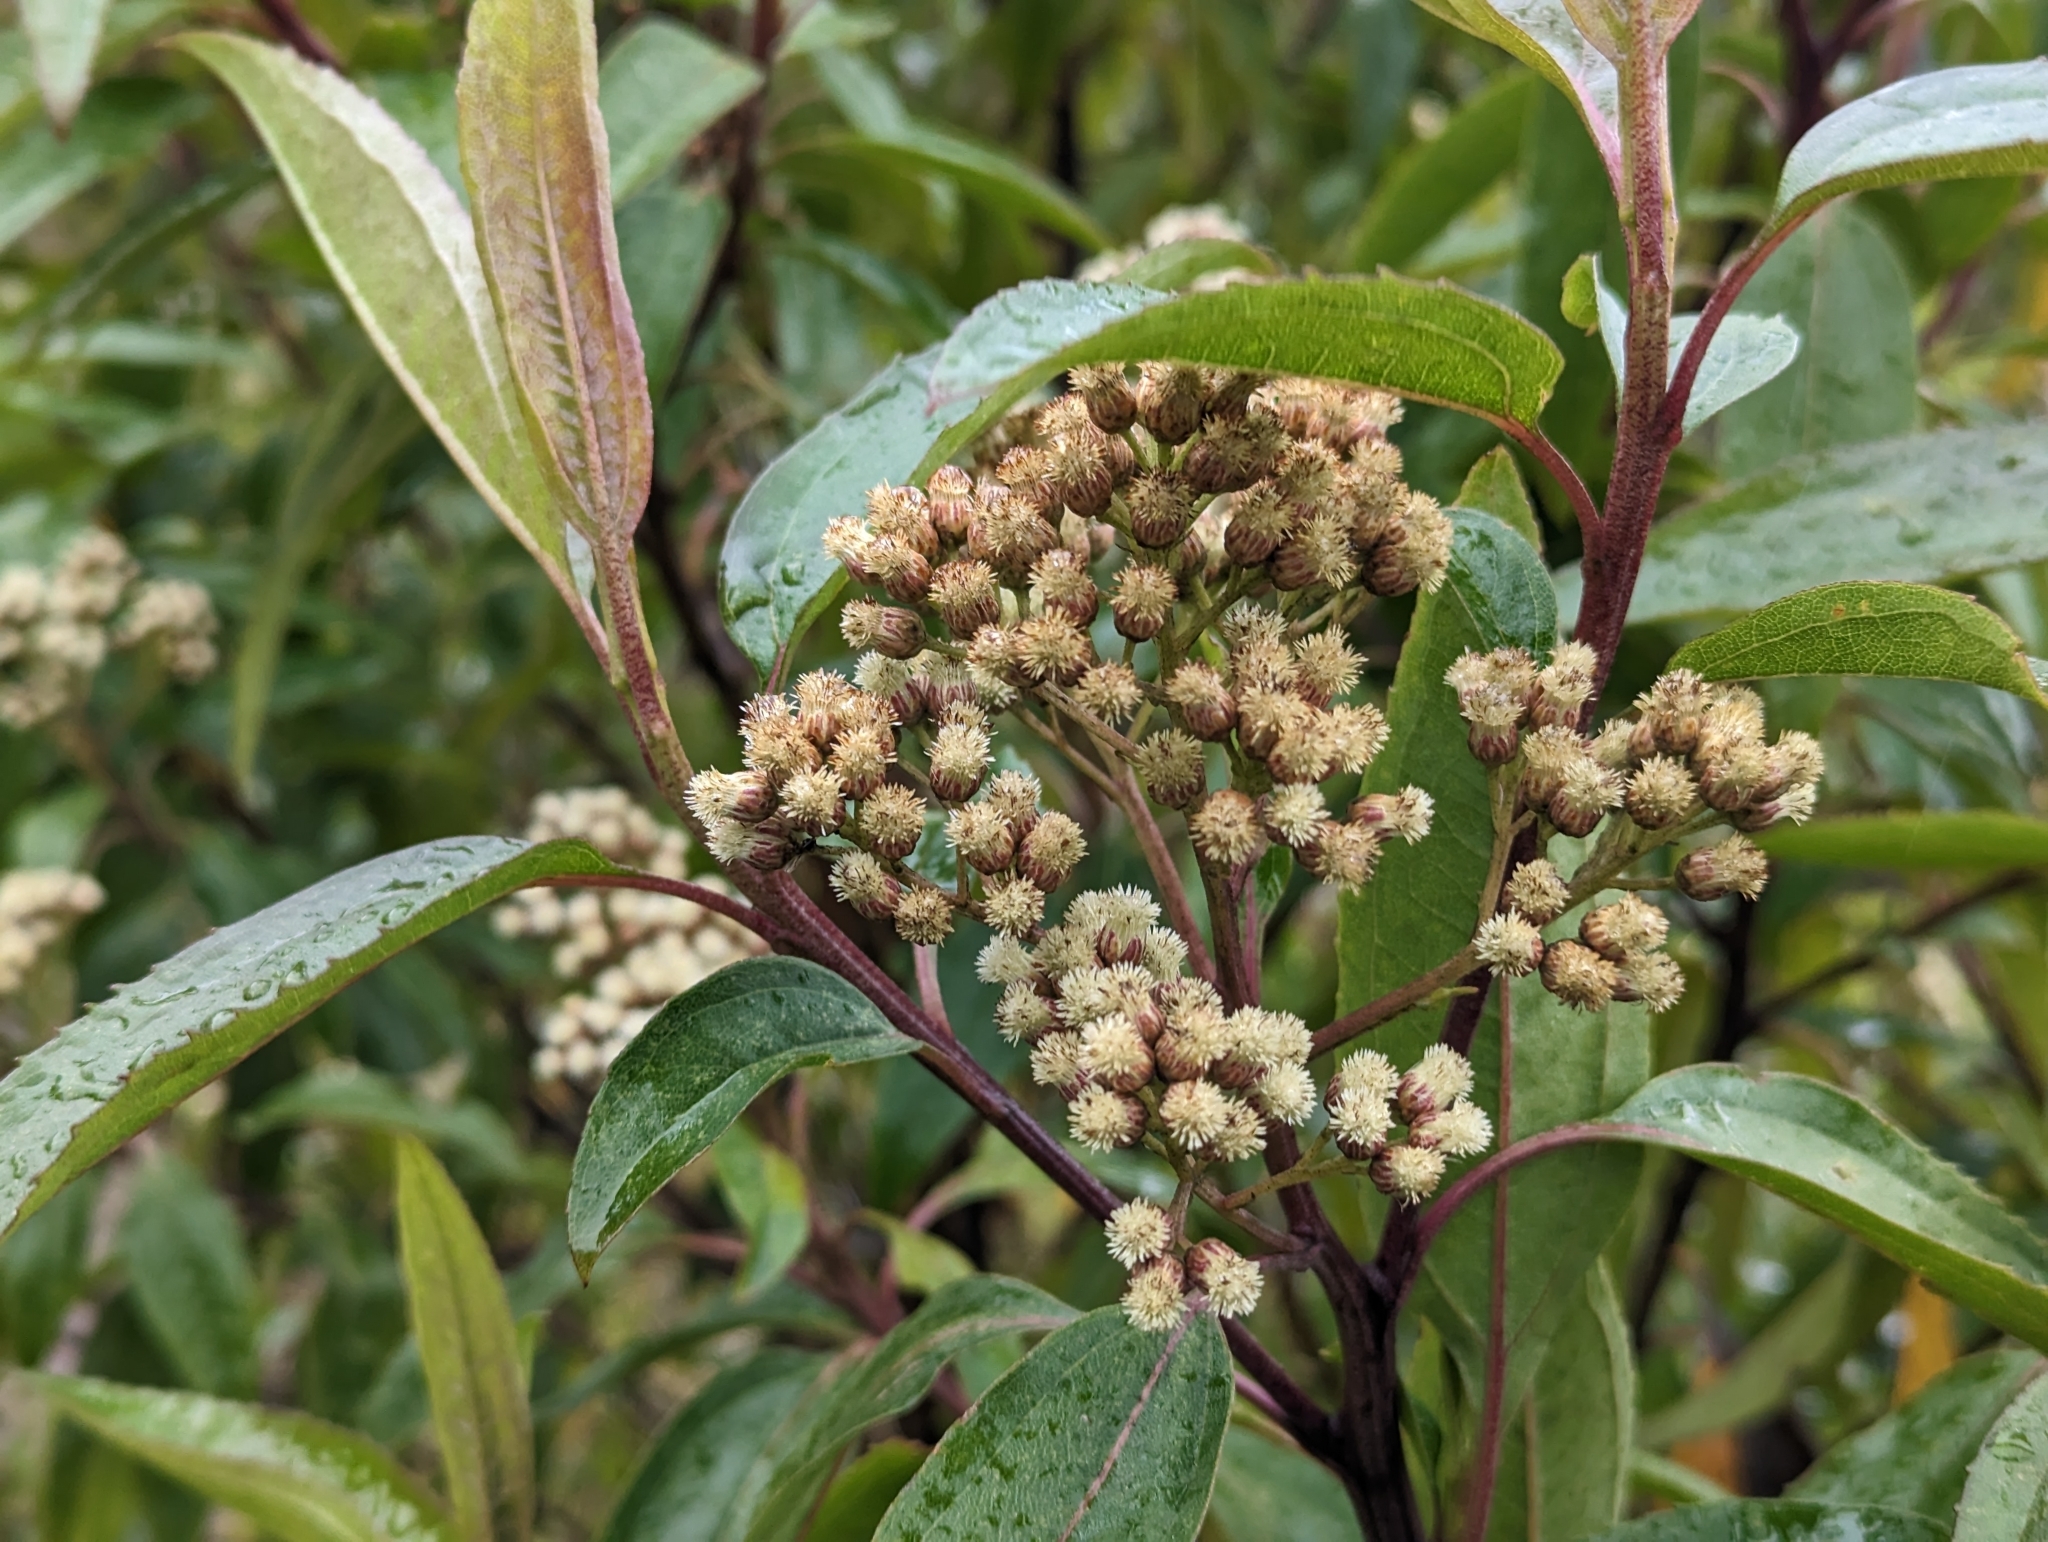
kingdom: Plantae
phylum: Tracheophyta
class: Magnoliopsida
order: Asterales
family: Asteraceae
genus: Baccharis
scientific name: Baccharis latifolia
